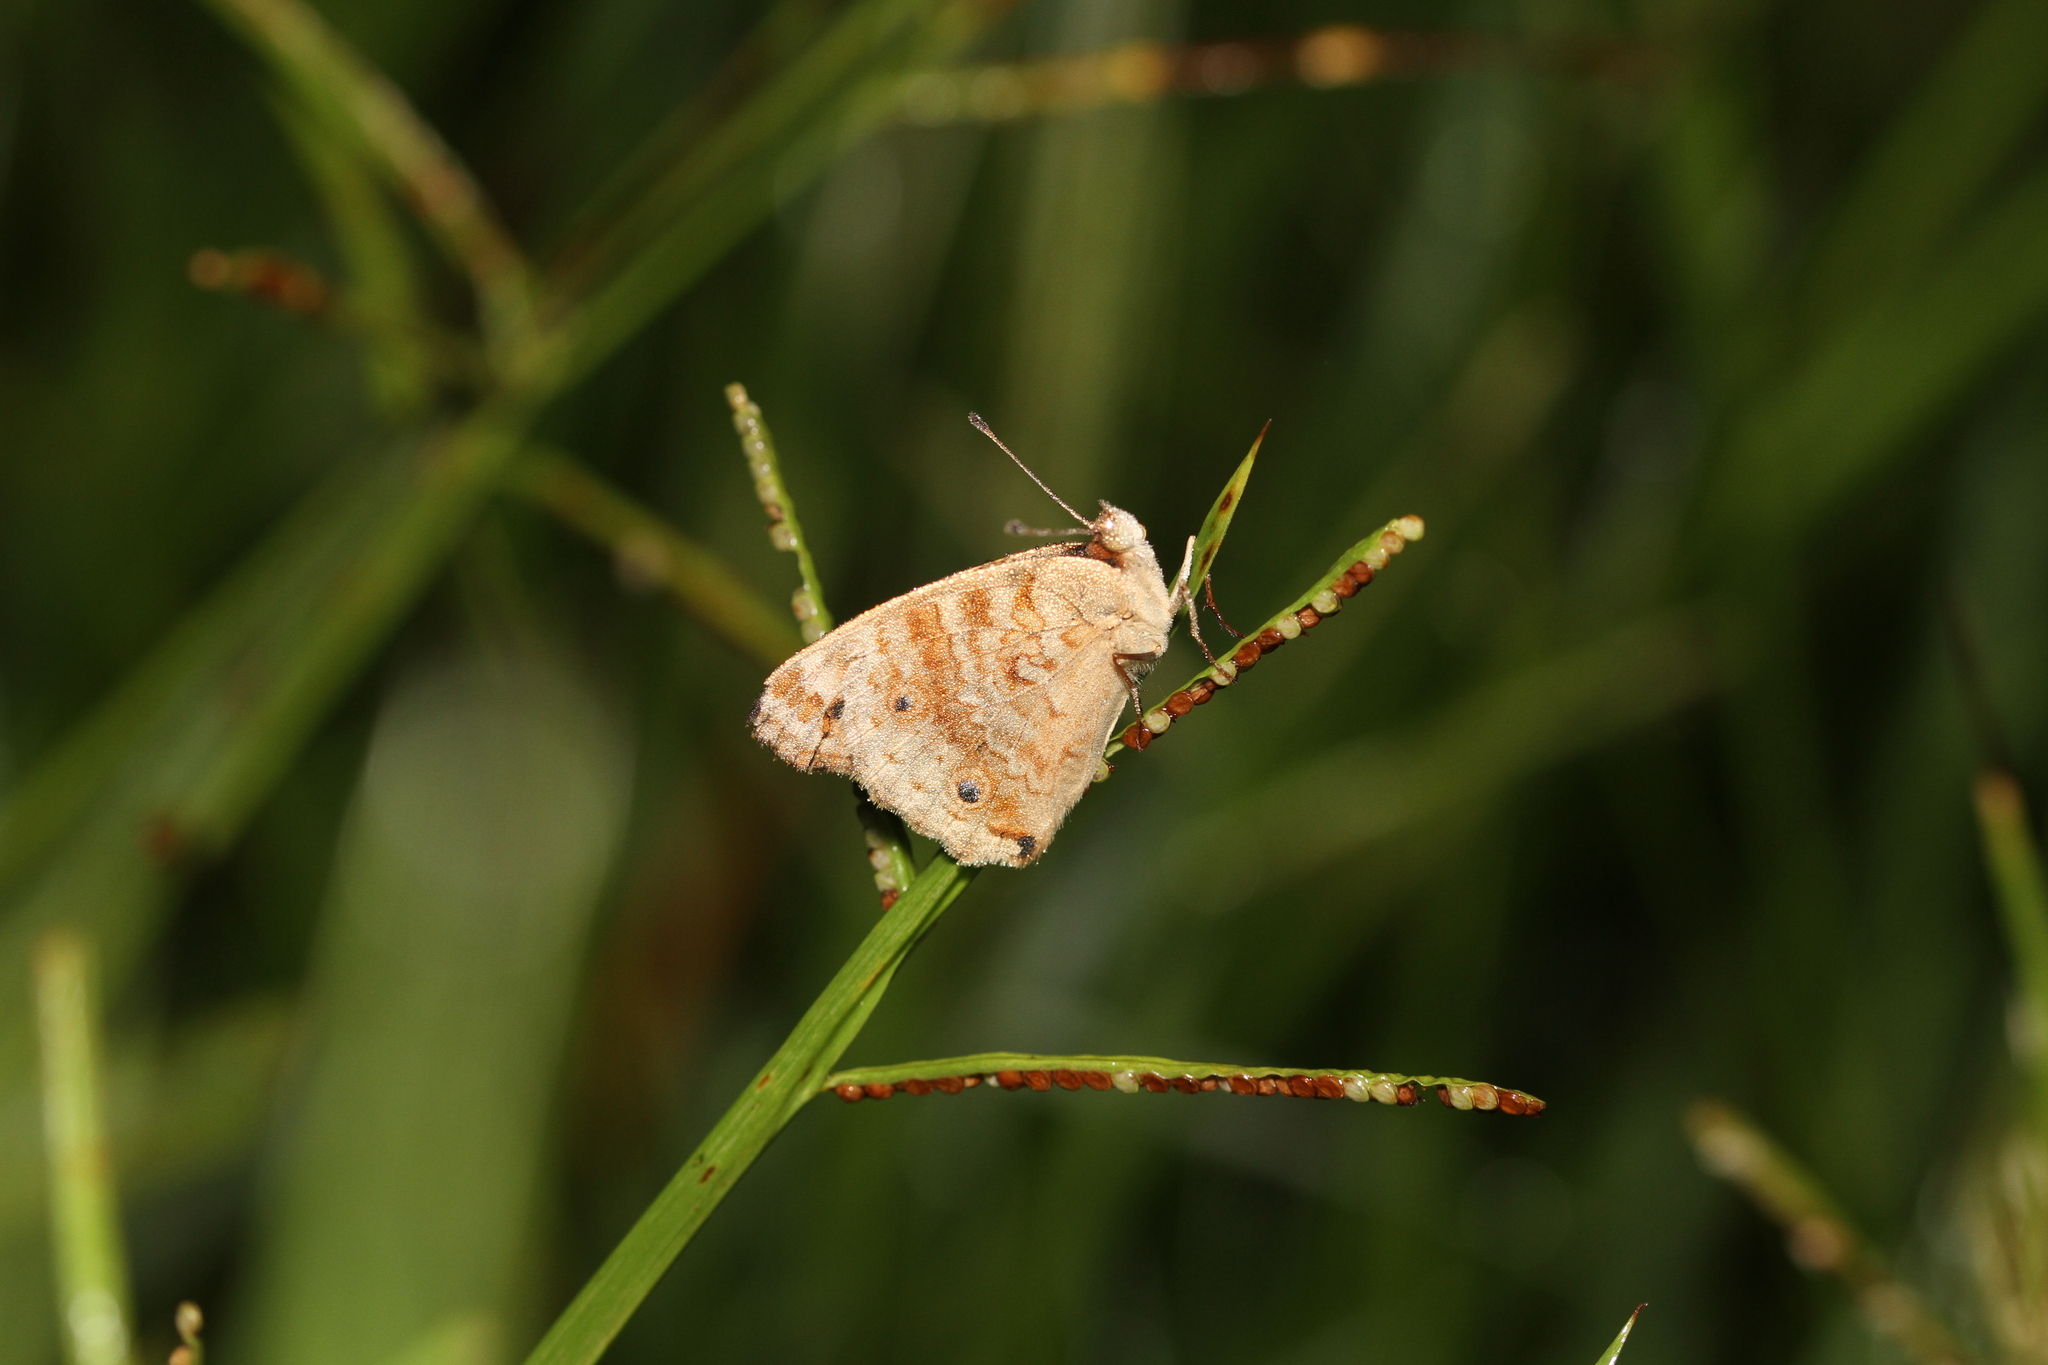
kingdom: Animalia
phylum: Arthropoda
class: Insecta
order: Lepidoptera
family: Nymphalidae
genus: Junonia
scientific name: Junonia orithya
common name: Blue pansy
